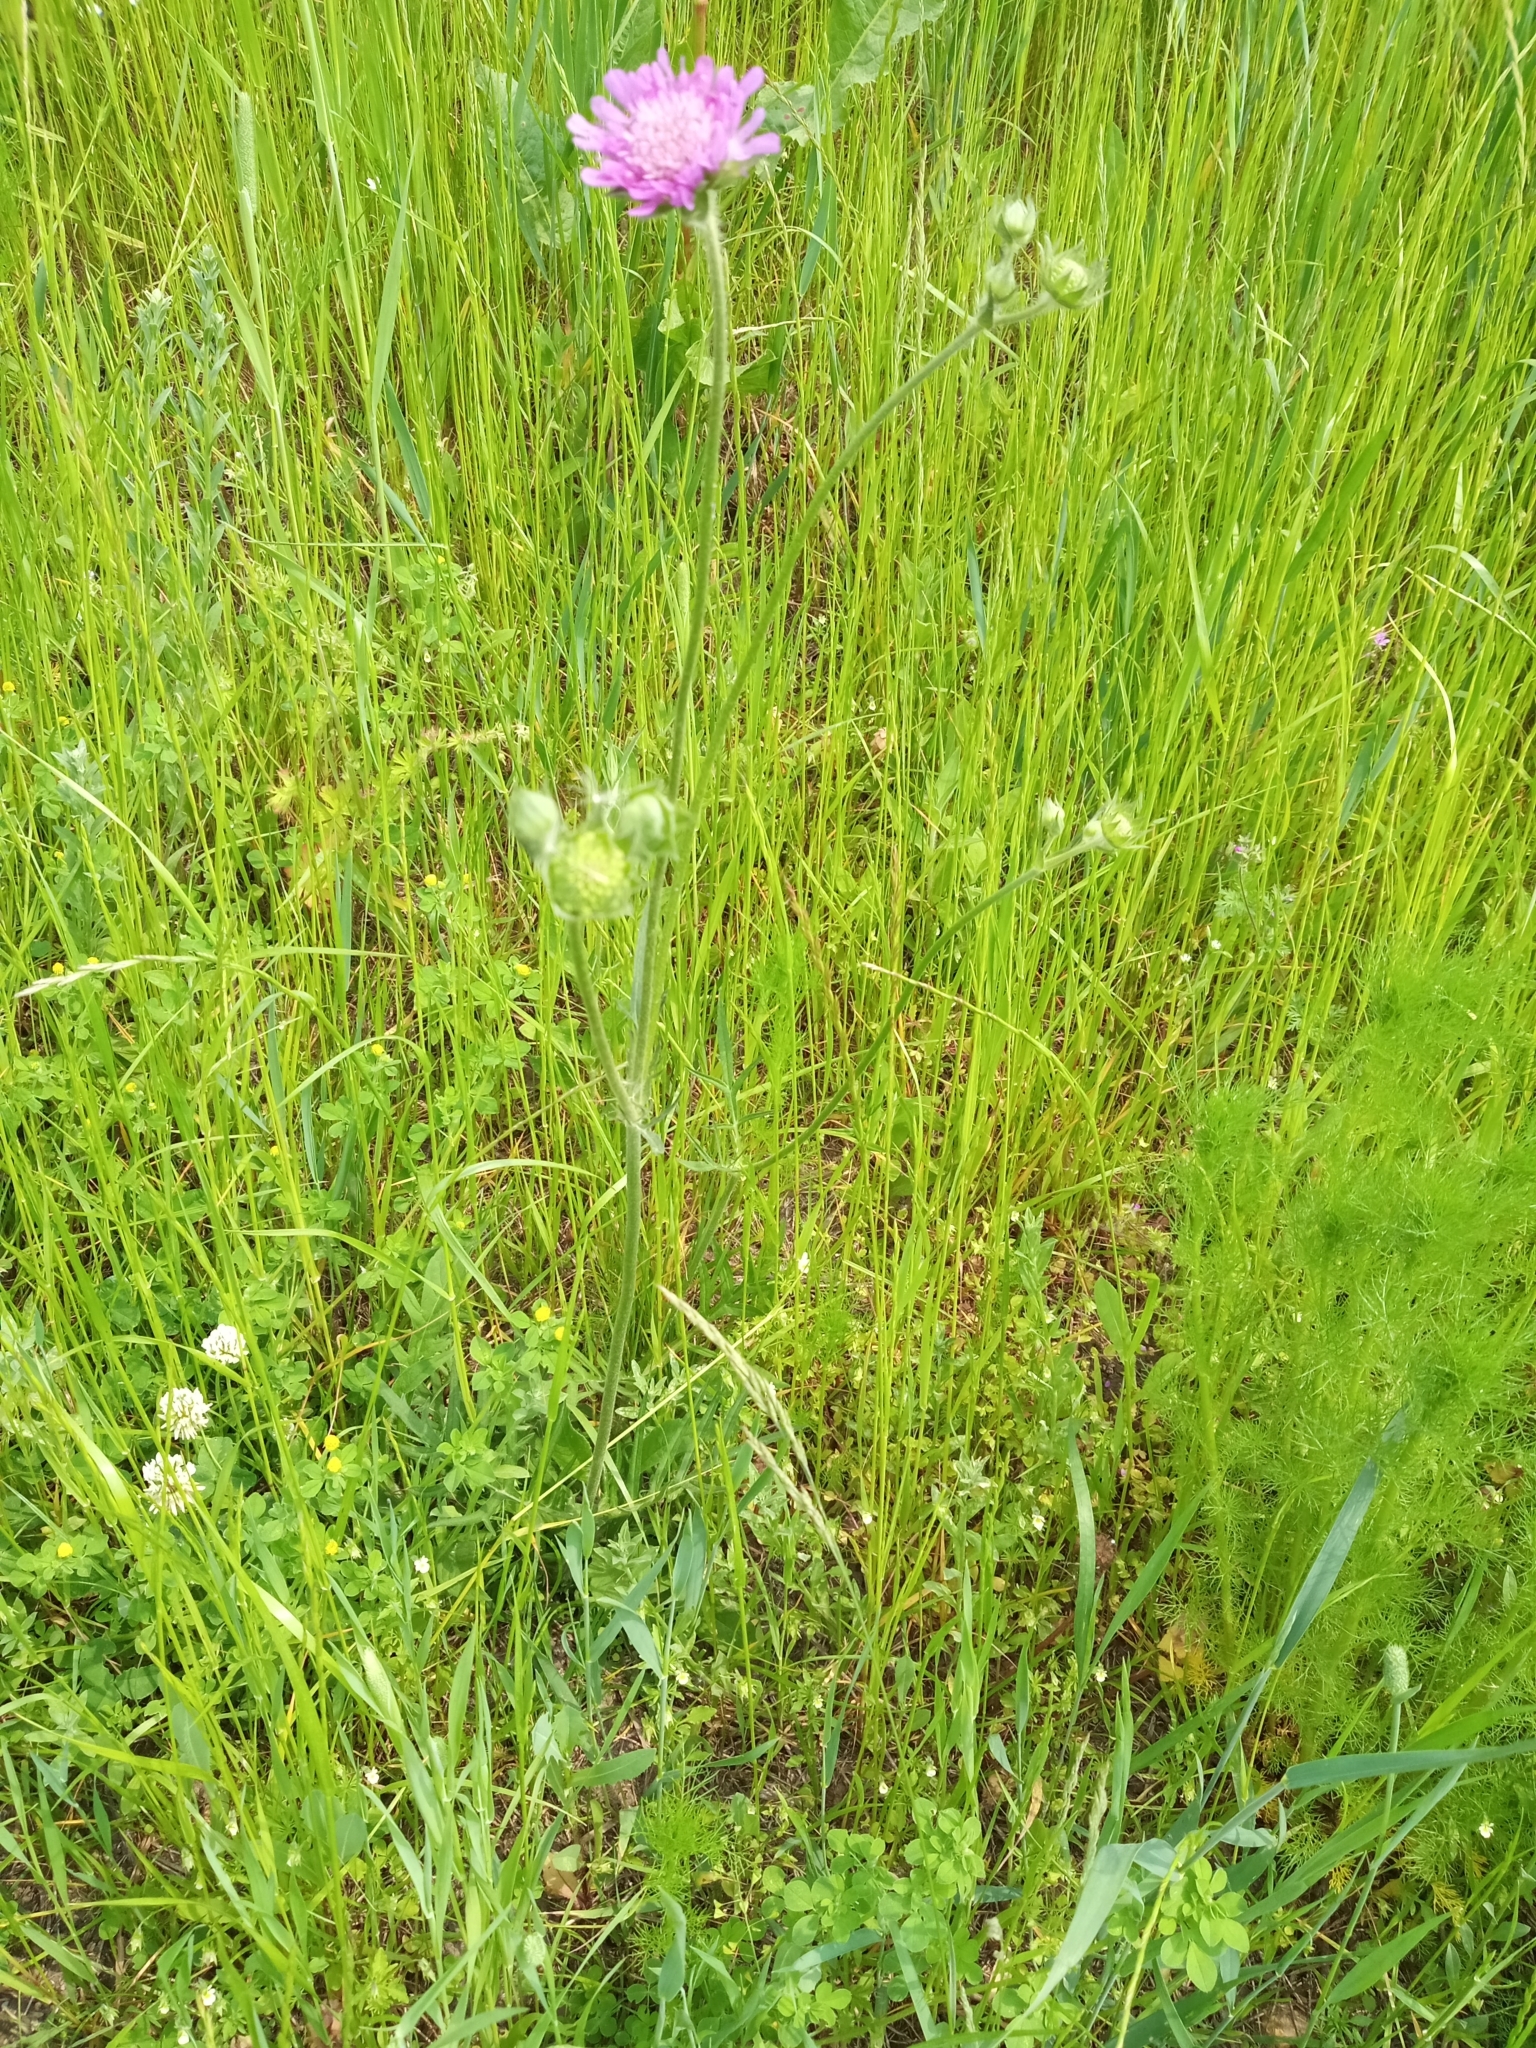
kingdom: Plantae
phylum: Tracheophyta
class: Magnoliopsida
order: Dipsacales
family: Caprifoliaceae
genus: Knautia
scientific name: Knautia arvensis
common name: Field scabiosa
